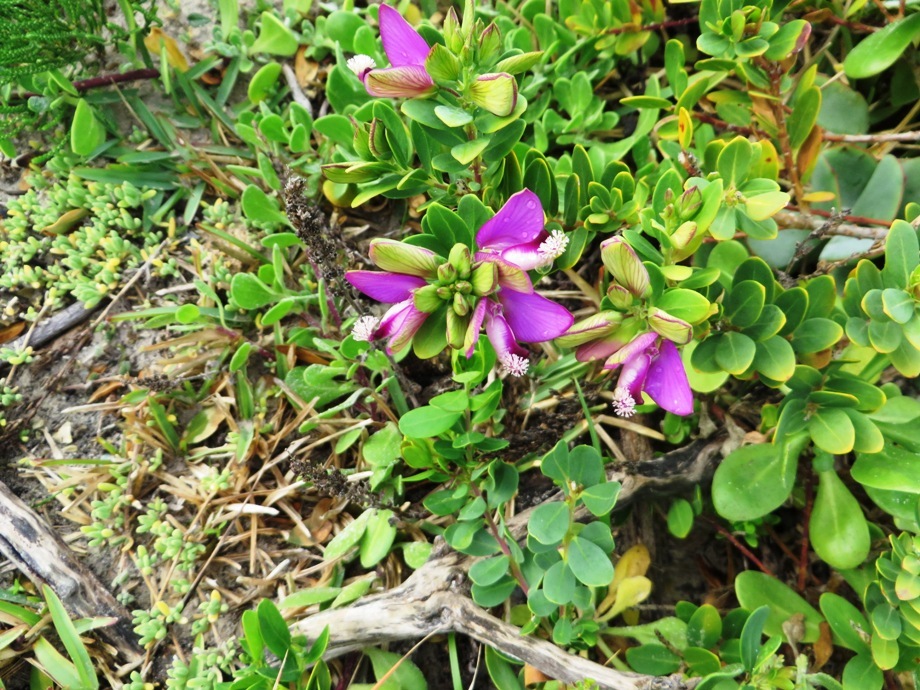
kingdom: Plantae
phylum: Tracheophyta
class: Magnoliopsida
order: Fabales
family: Polygalaceae
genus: Polygala
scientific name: Polygala myrtifolia
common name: Myrtle-leaf milkwort
